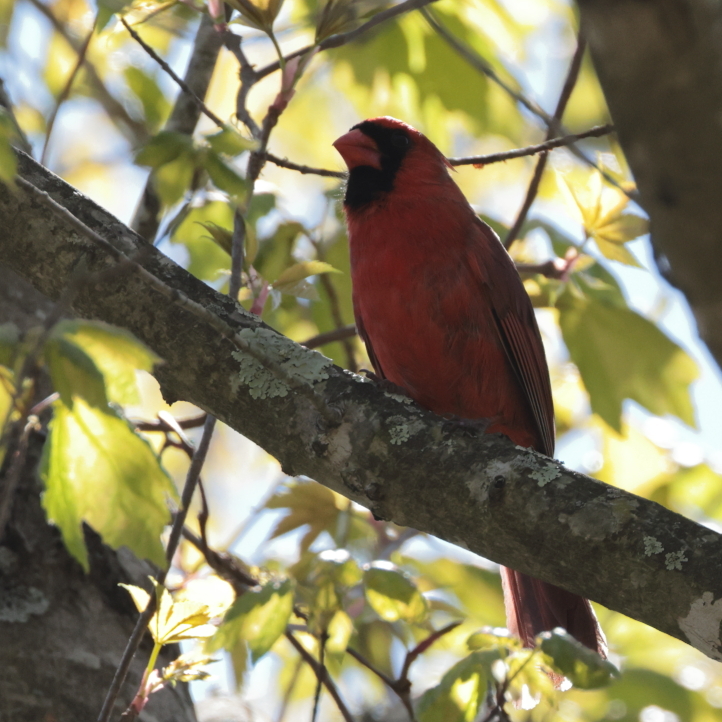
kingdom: Animalia
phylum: Chordata
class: Aves
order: Passeriformes
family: Cardinalidae
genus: Cardinalis
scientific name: Cardinalis cardinalis
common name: Northern cardinal
